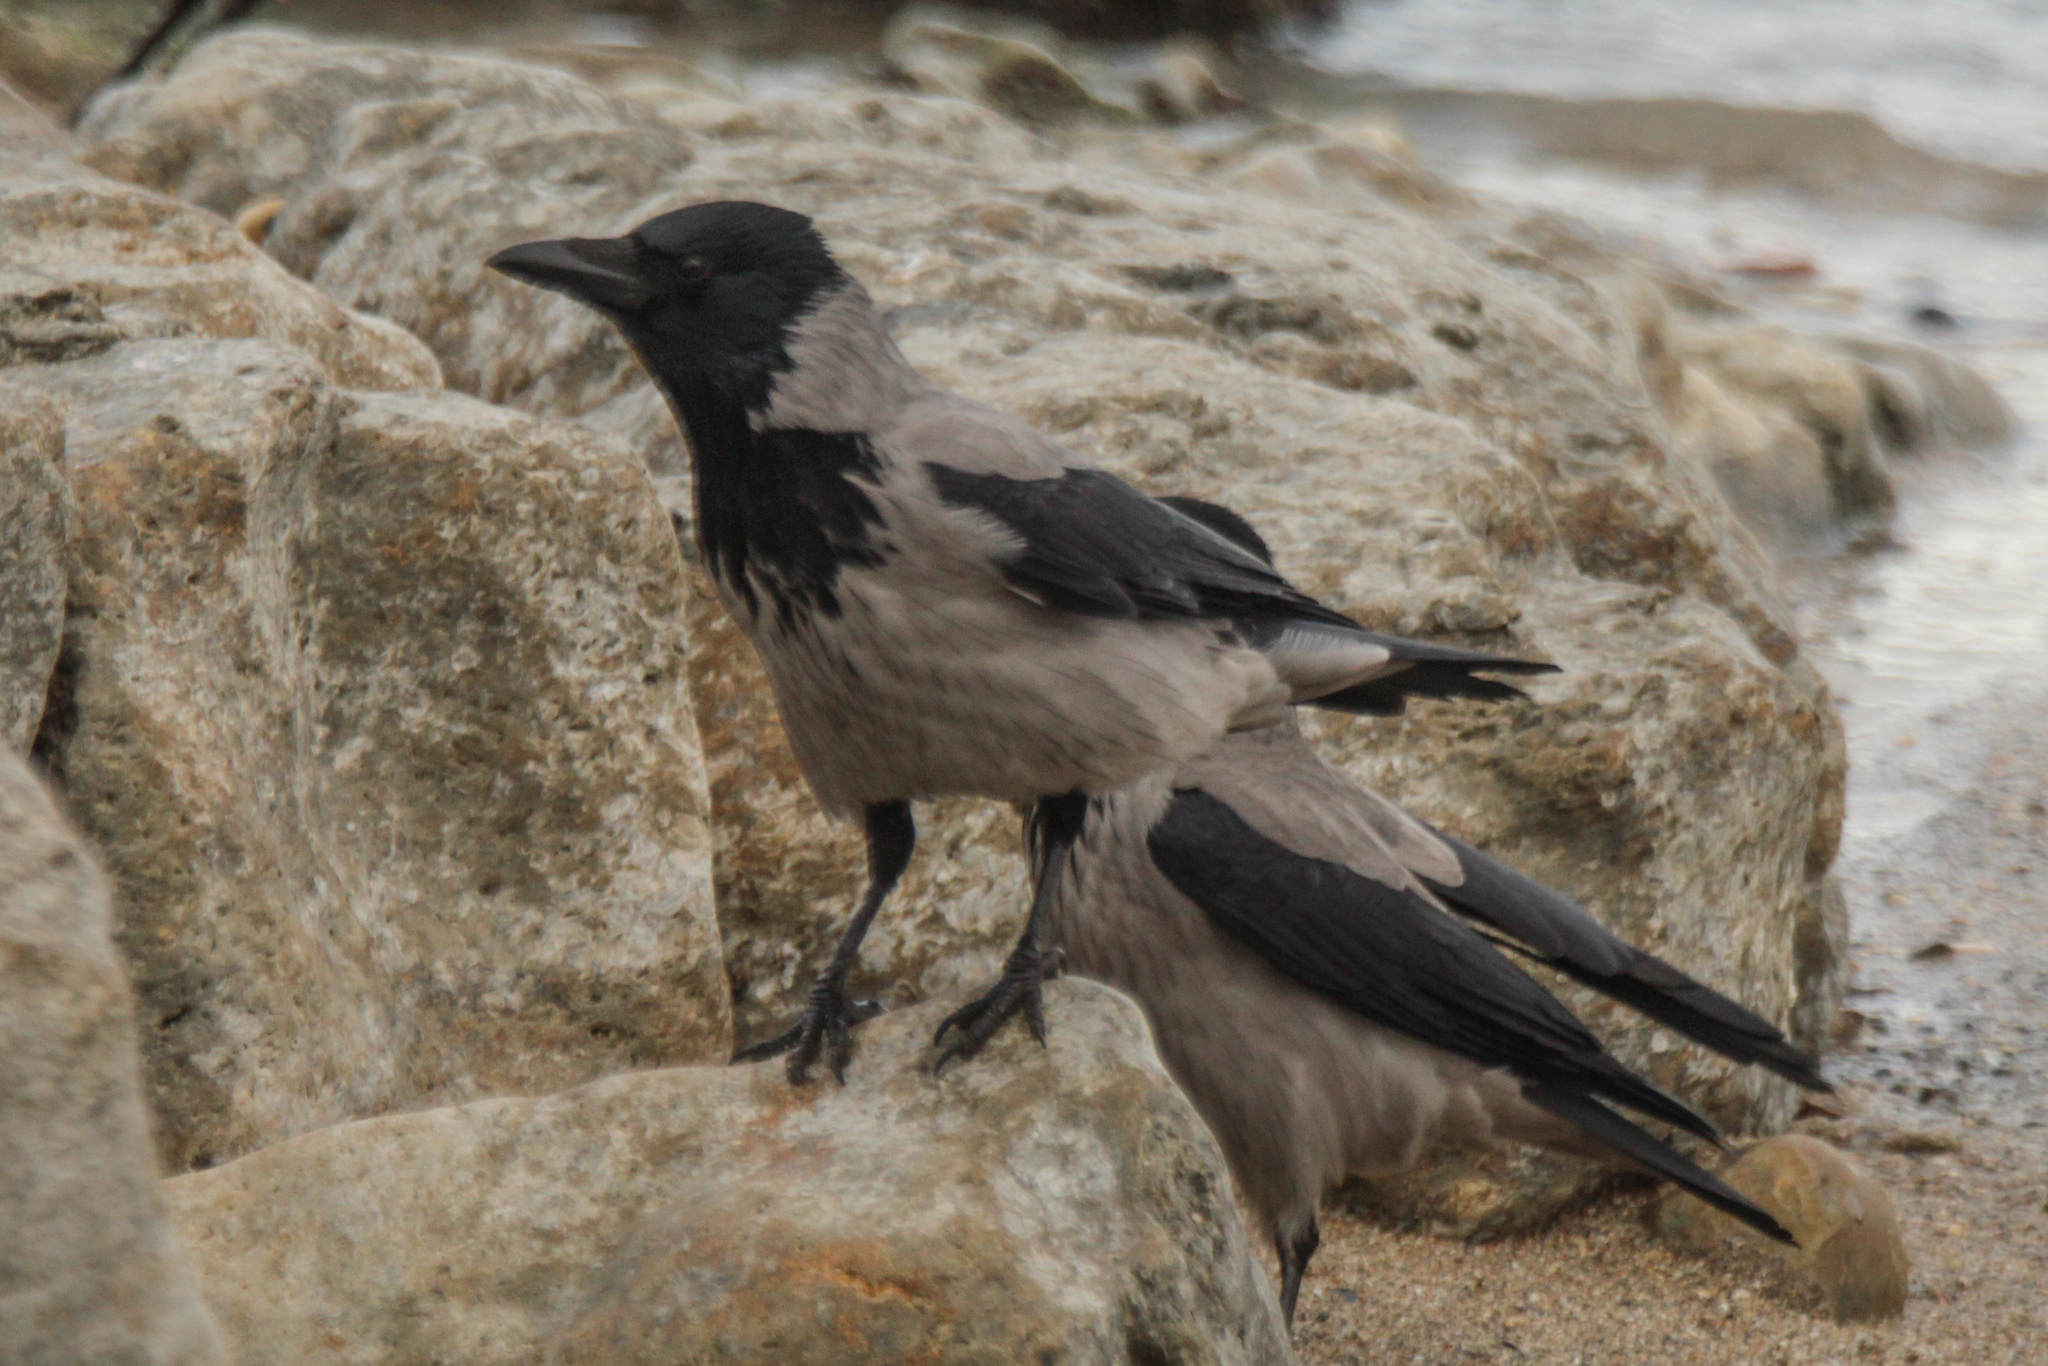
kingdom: Animalia
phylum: Chordata
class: Aves
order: Passeriformes
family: Corvidae
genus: Corvus
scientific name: Corvus cornix
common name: Hooded crow
